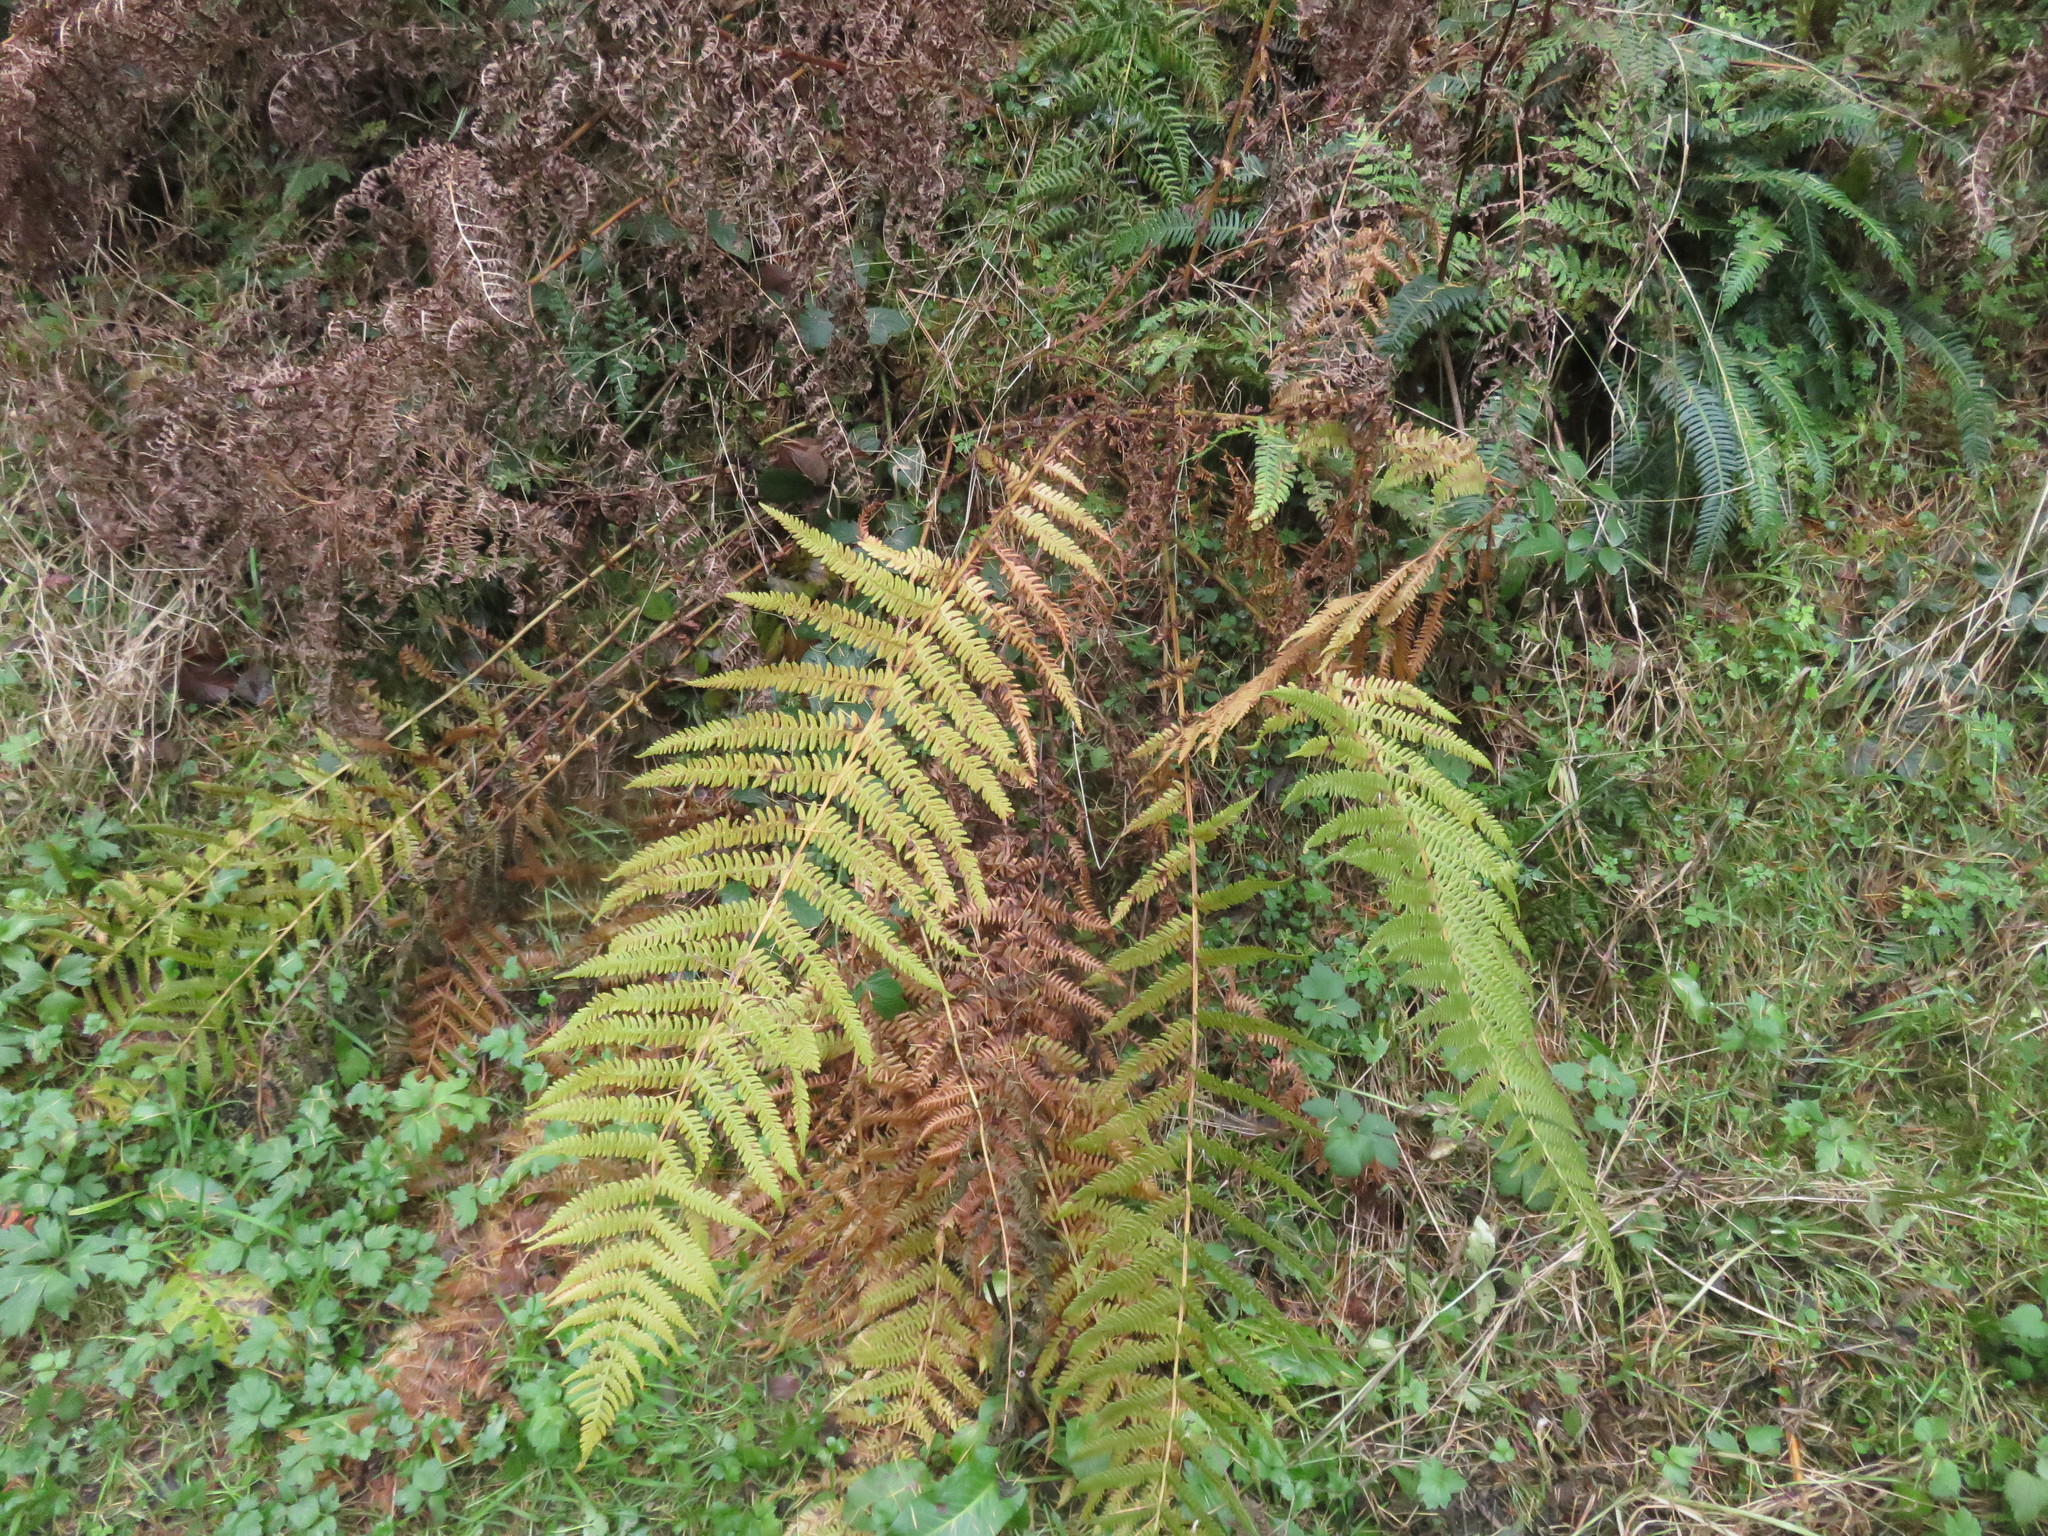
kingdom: Plantae
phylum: Tracheophyta
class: Polypodiopsida
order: Polypodiales
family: Thelypteridaceae
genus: Oreopteris
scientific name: Oreopteris limbosperma
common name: Lemon-scented fern
